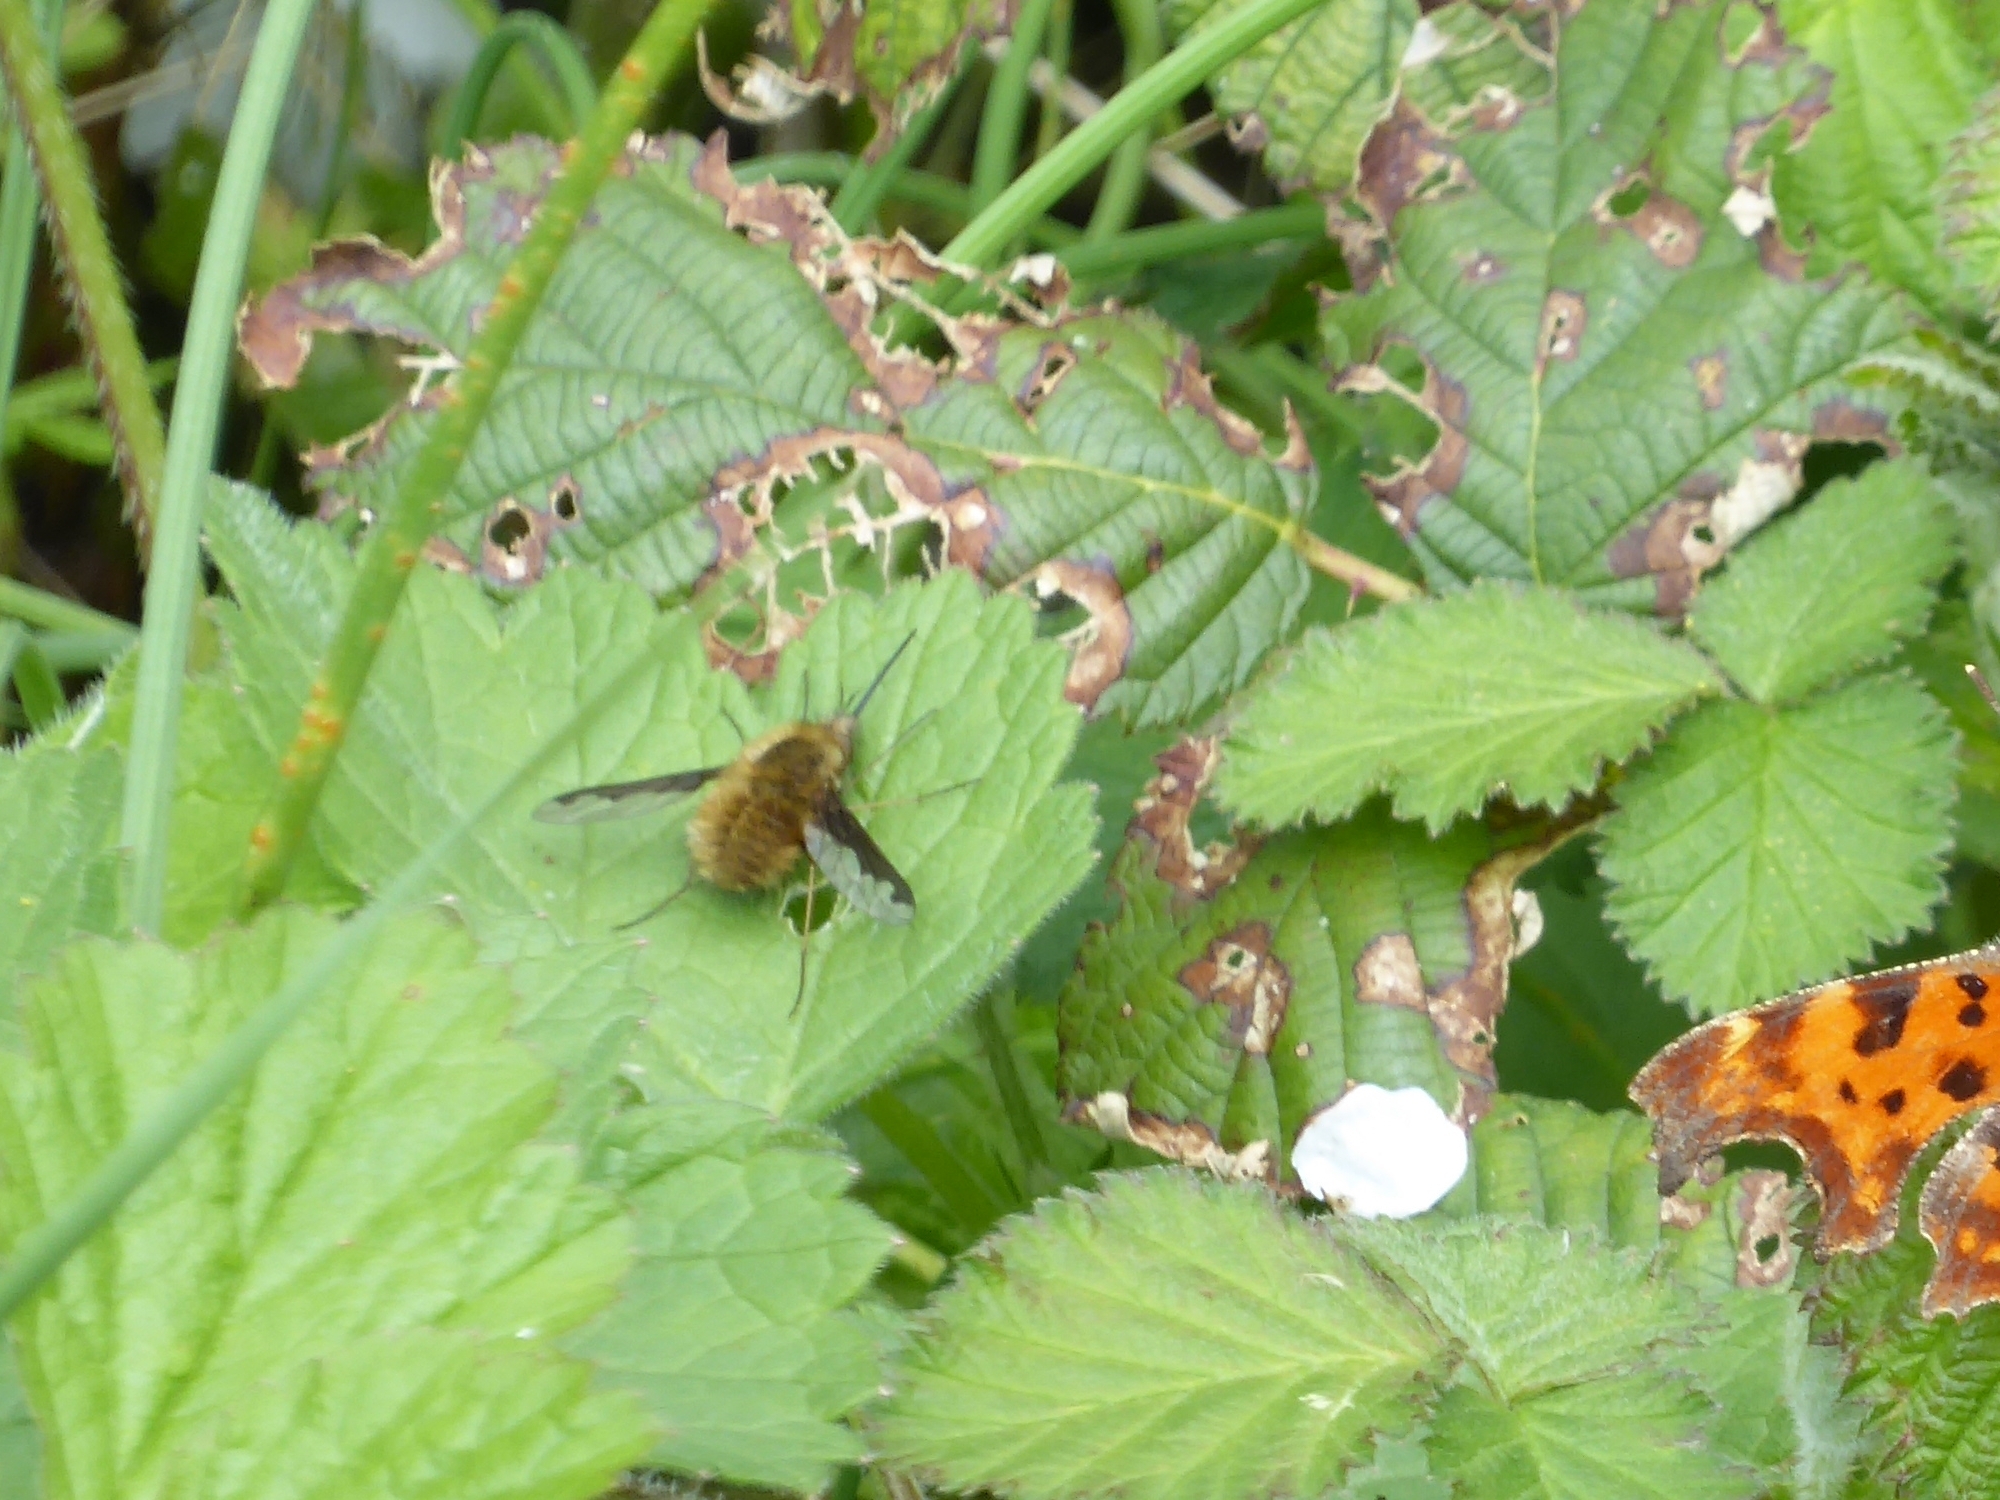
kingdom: Animalia
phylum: Arthropoda
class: Insecta
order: Diptera
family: Bombyliidae
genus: Bombylius
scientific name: Bombylius major
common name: Bee fly
